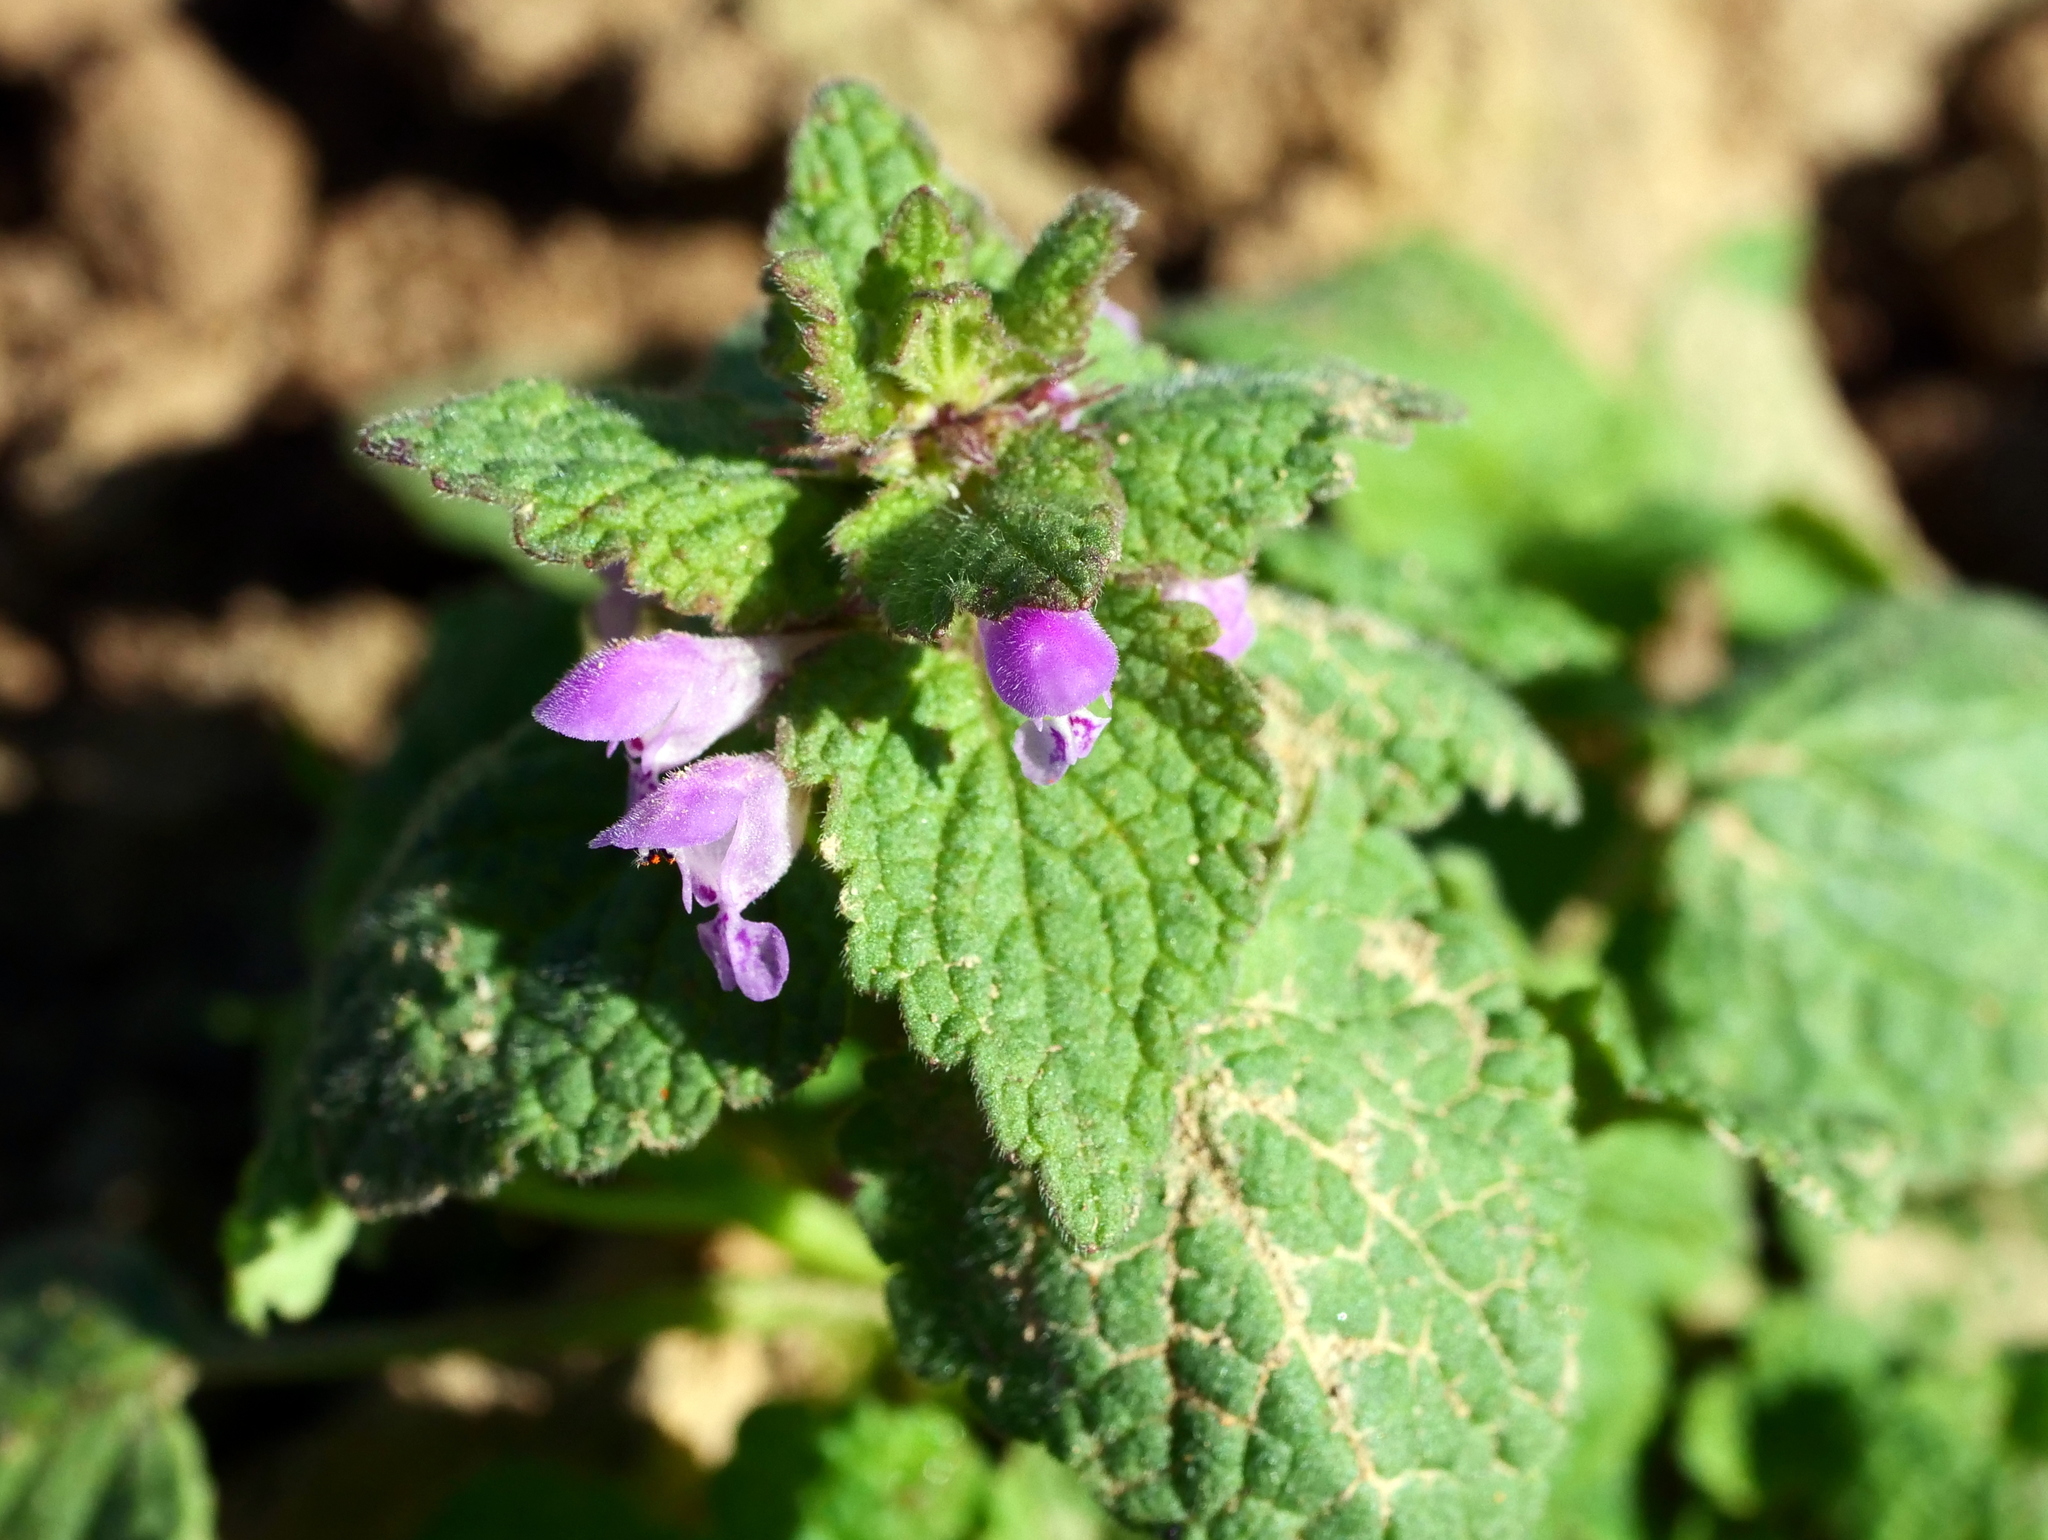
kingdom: Plantae
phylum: Tracheophyta
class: Magnoliopsida
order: Lamiales
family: Lamiaceae
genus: Lamium
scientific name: Lamium purpureum
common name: Red dead-nettle
